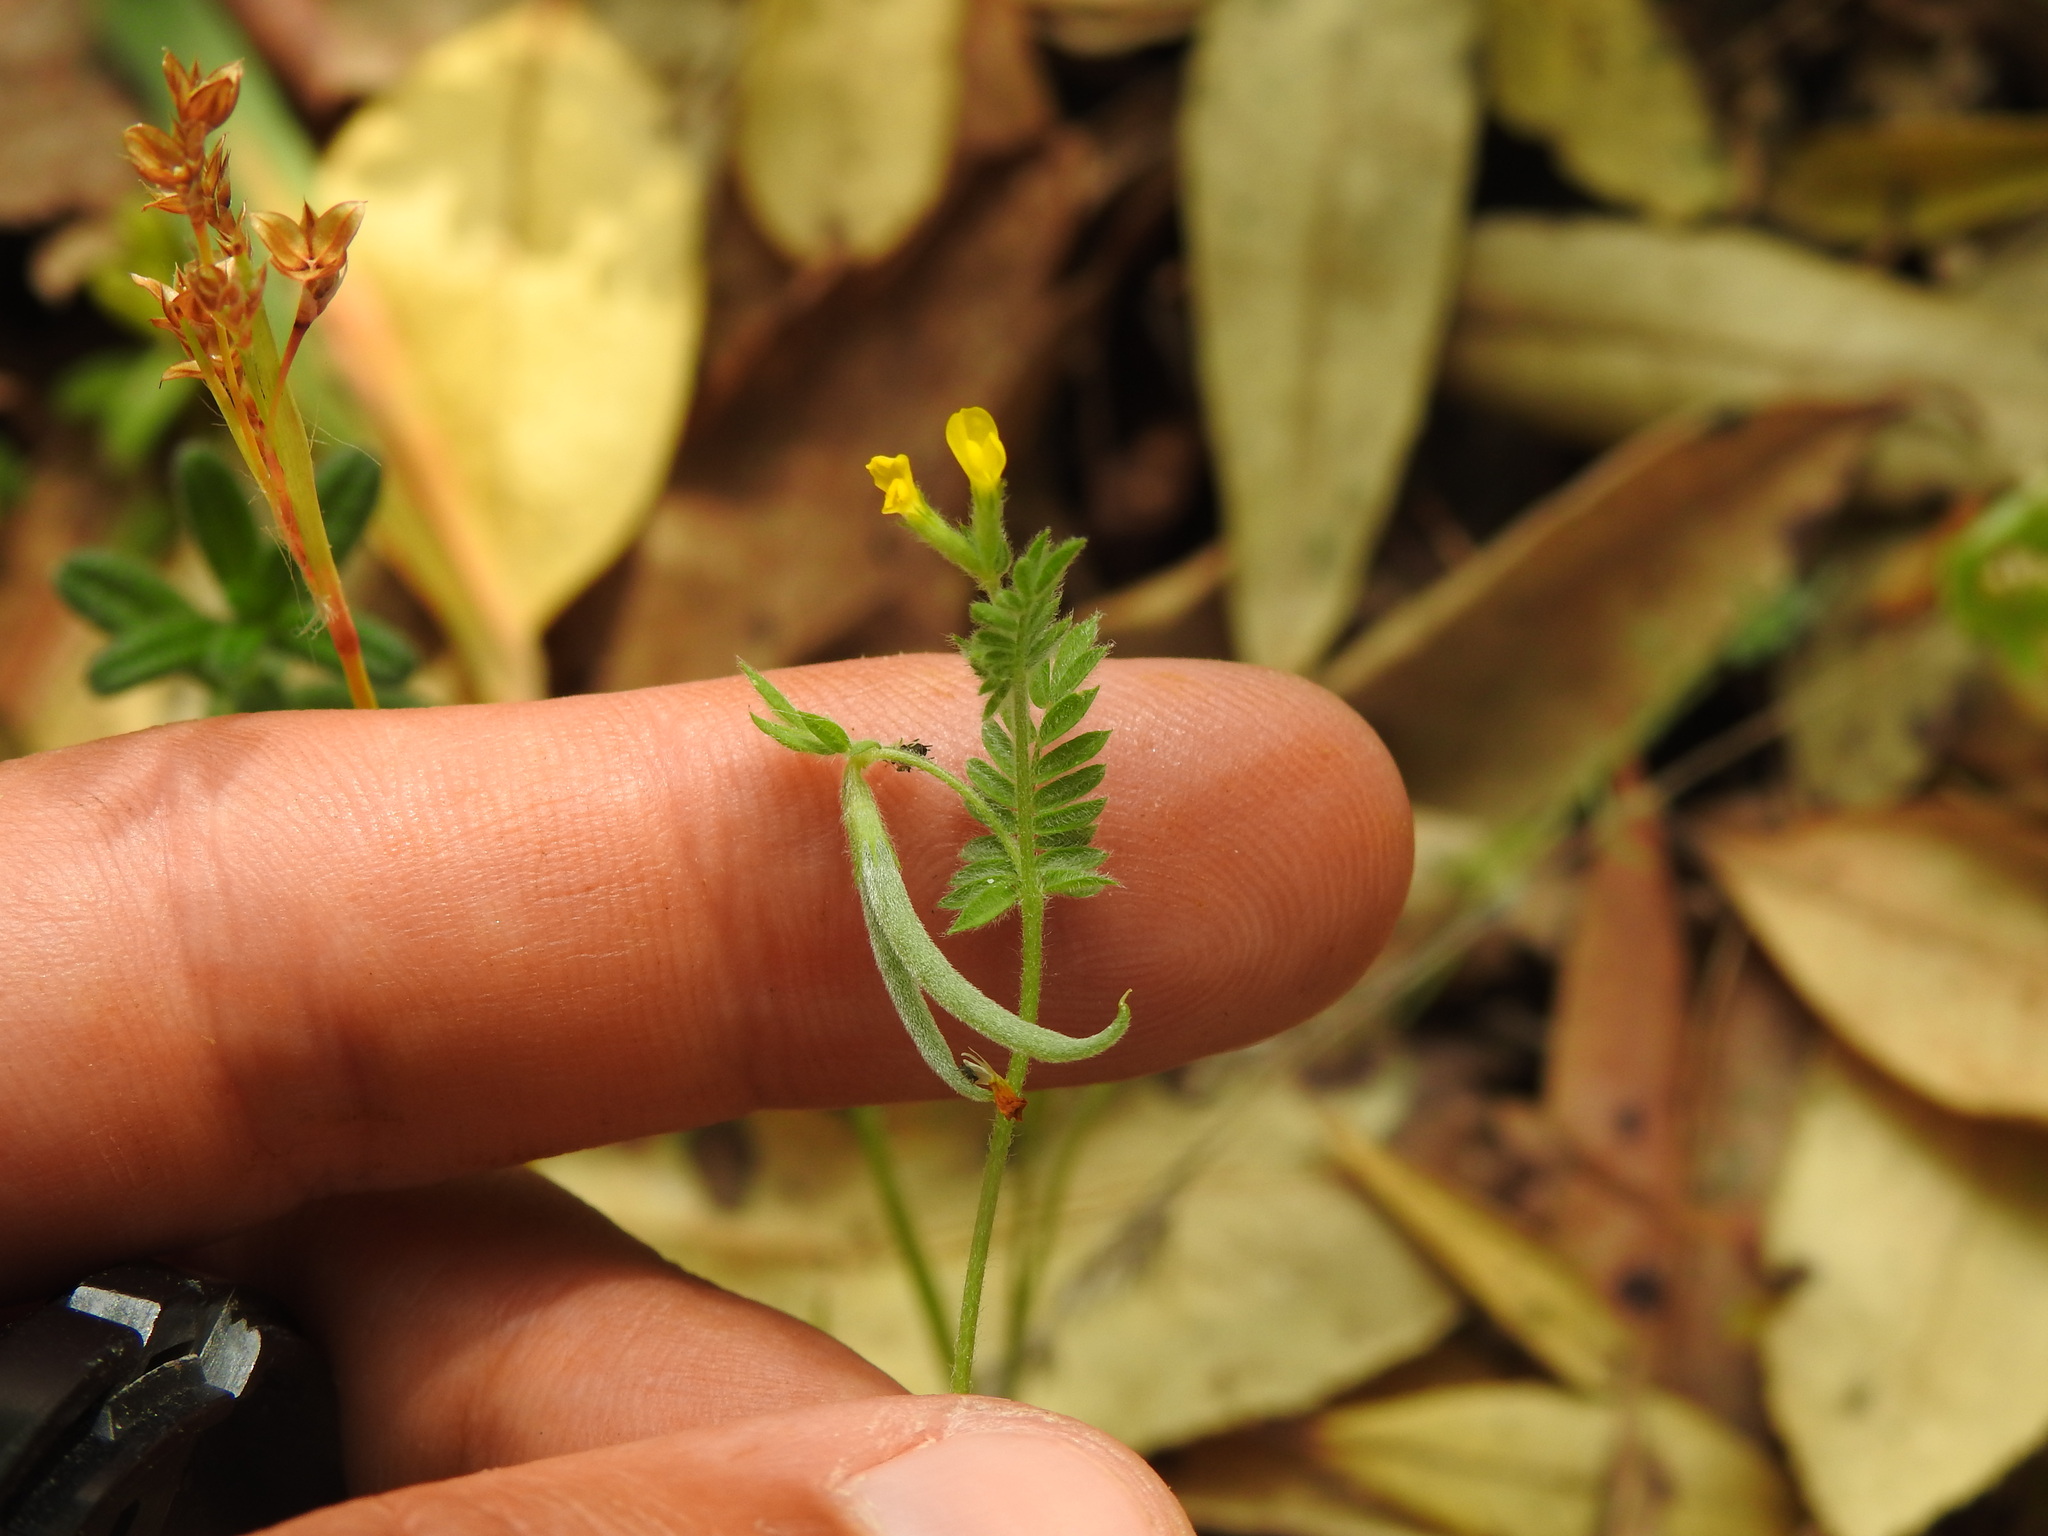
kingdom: Plantae
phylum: Tracheophyta
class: Magnoliopsida
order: Fabales
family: Fabaceae
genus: Ornithopus
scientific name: Ornithopus compressus
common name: Yellow serradella
